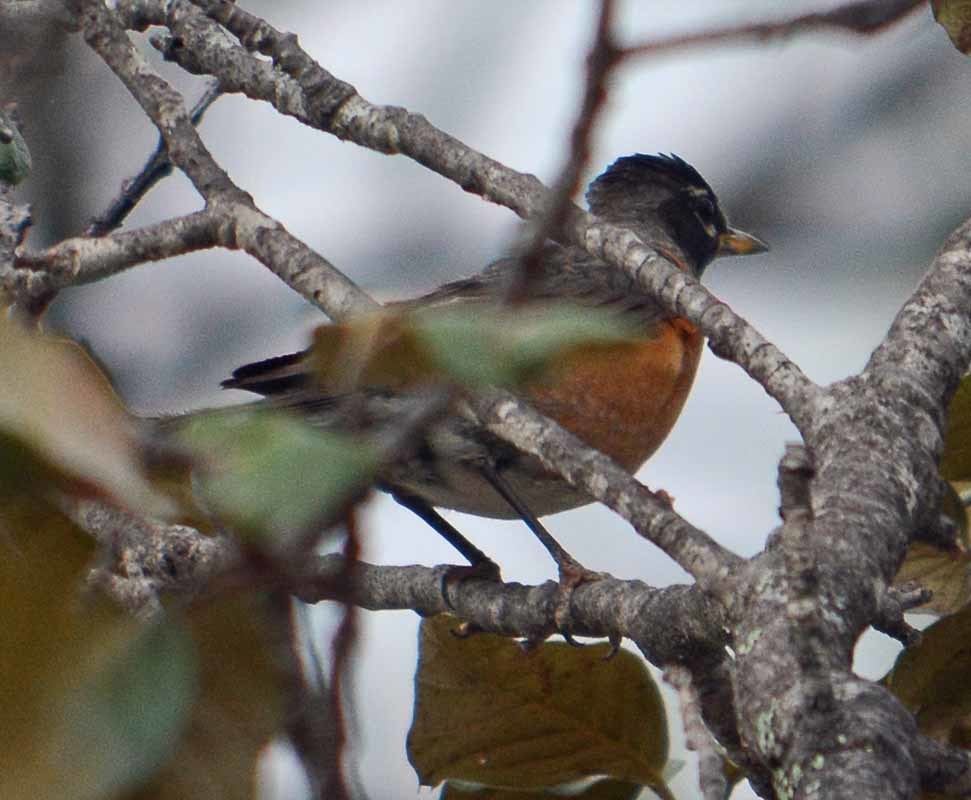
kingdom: Animalia
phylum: Chordata
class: Aves
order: Passeriformes
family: Turdidae
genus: Turdus
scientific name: Turdus migratorius
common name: American robin
